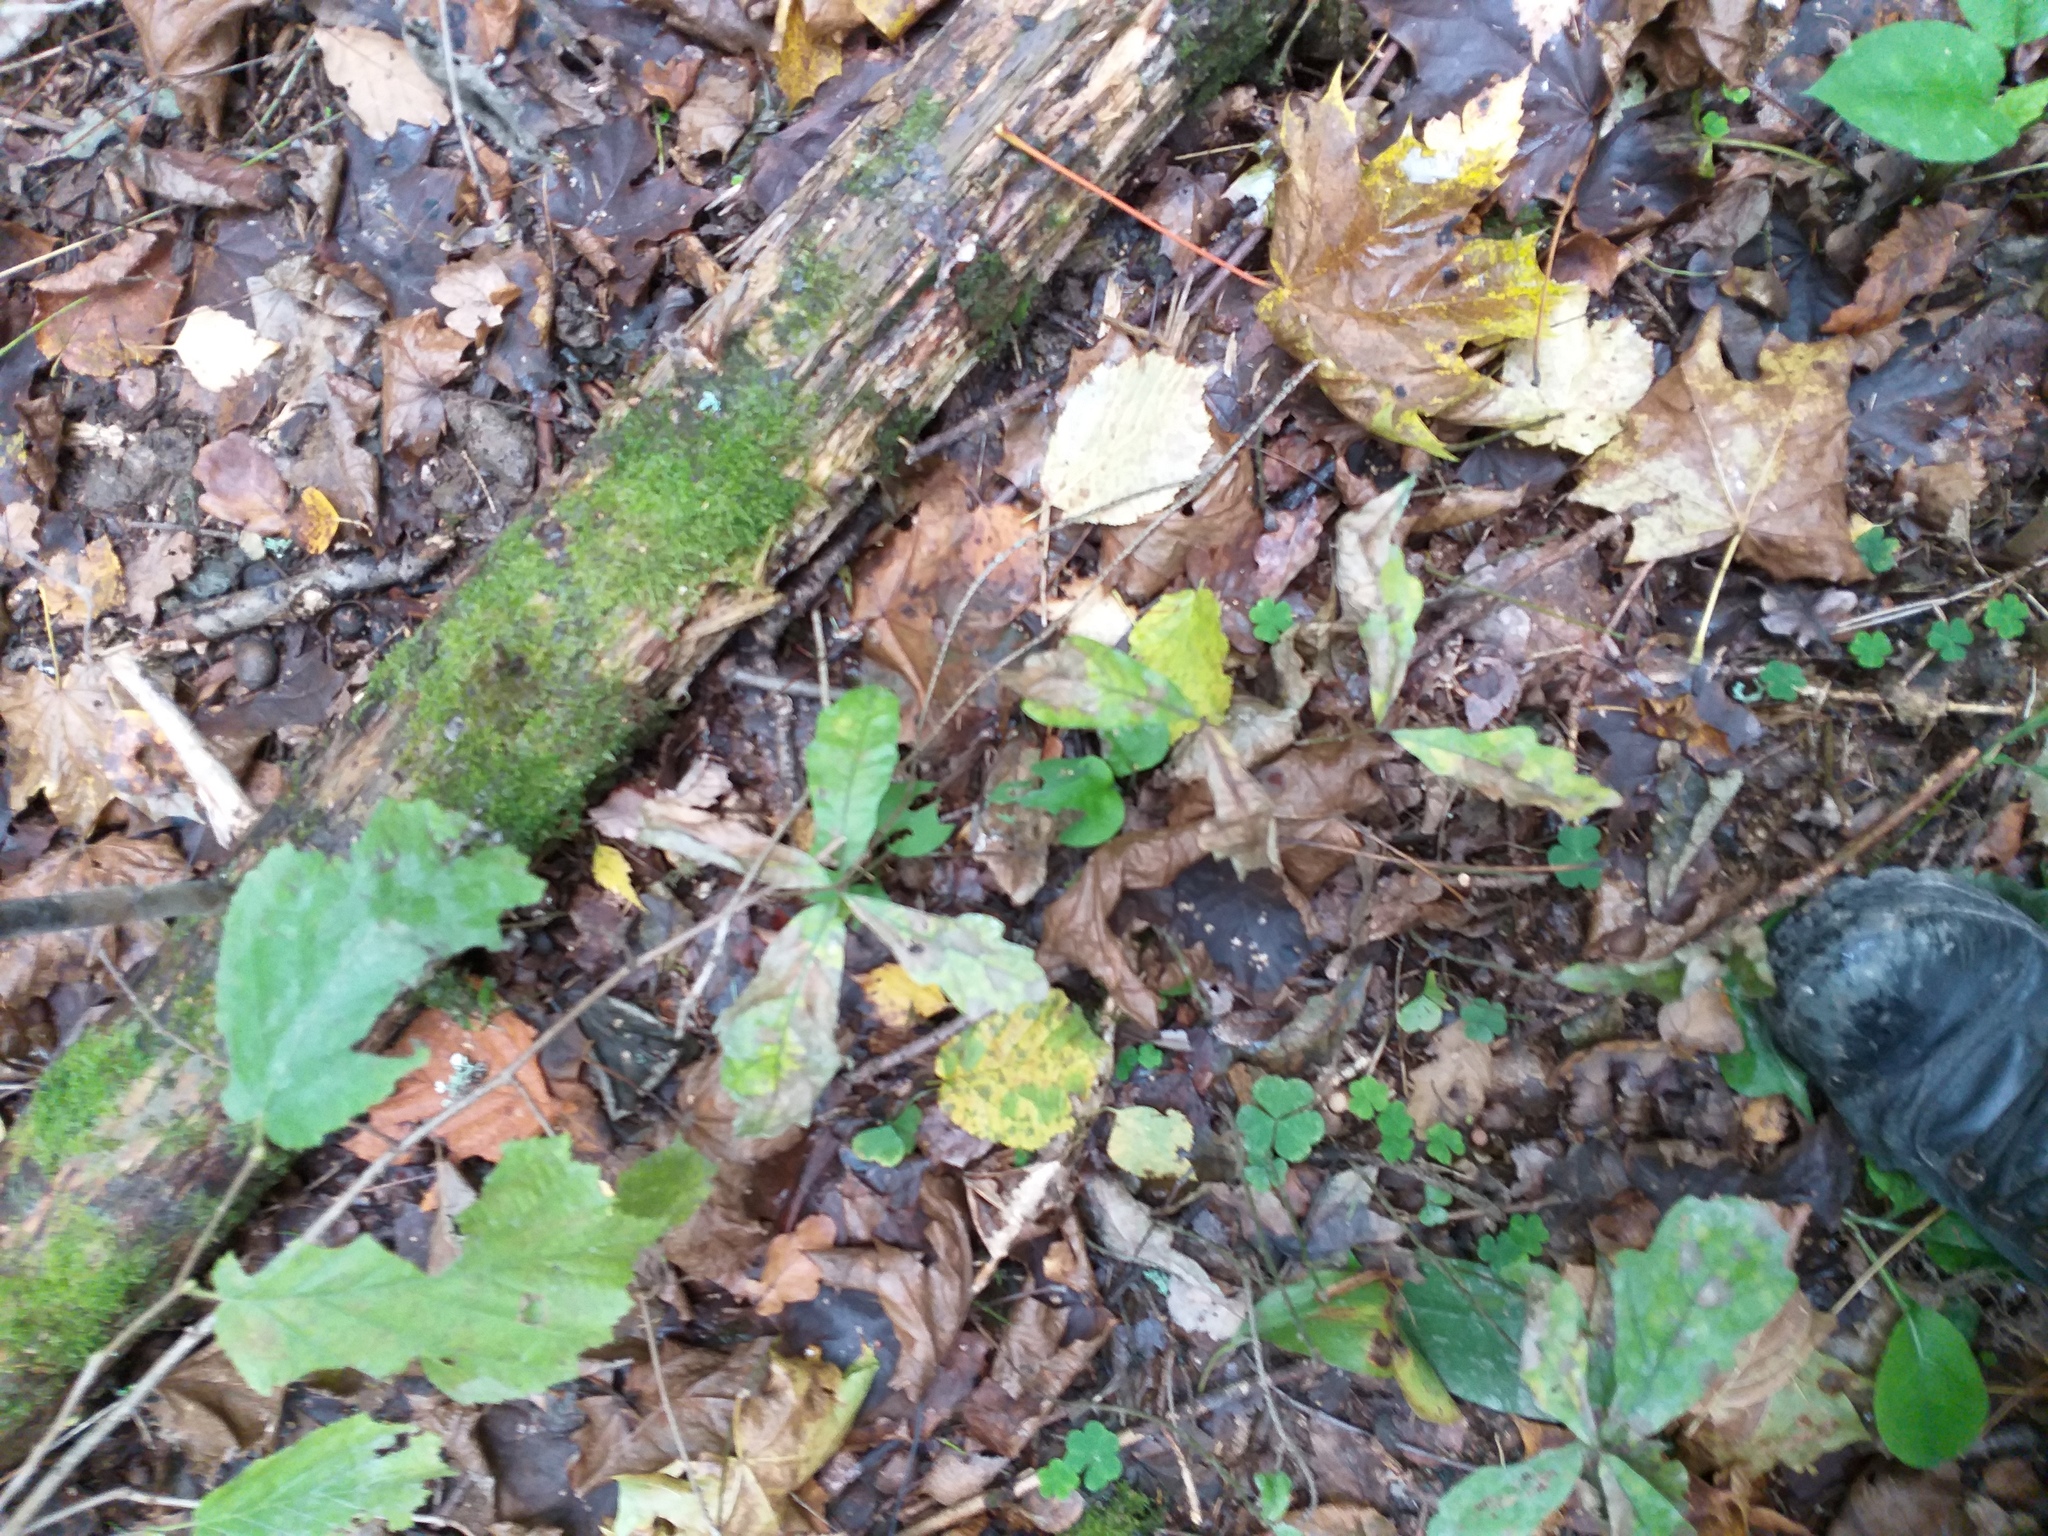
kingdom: Plantae
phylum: Tracheophyta
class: Magnoliopsida
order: Fagales
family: Fagaceae
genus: Quercus
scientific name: Quercus robur
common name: Pedunculate oak
